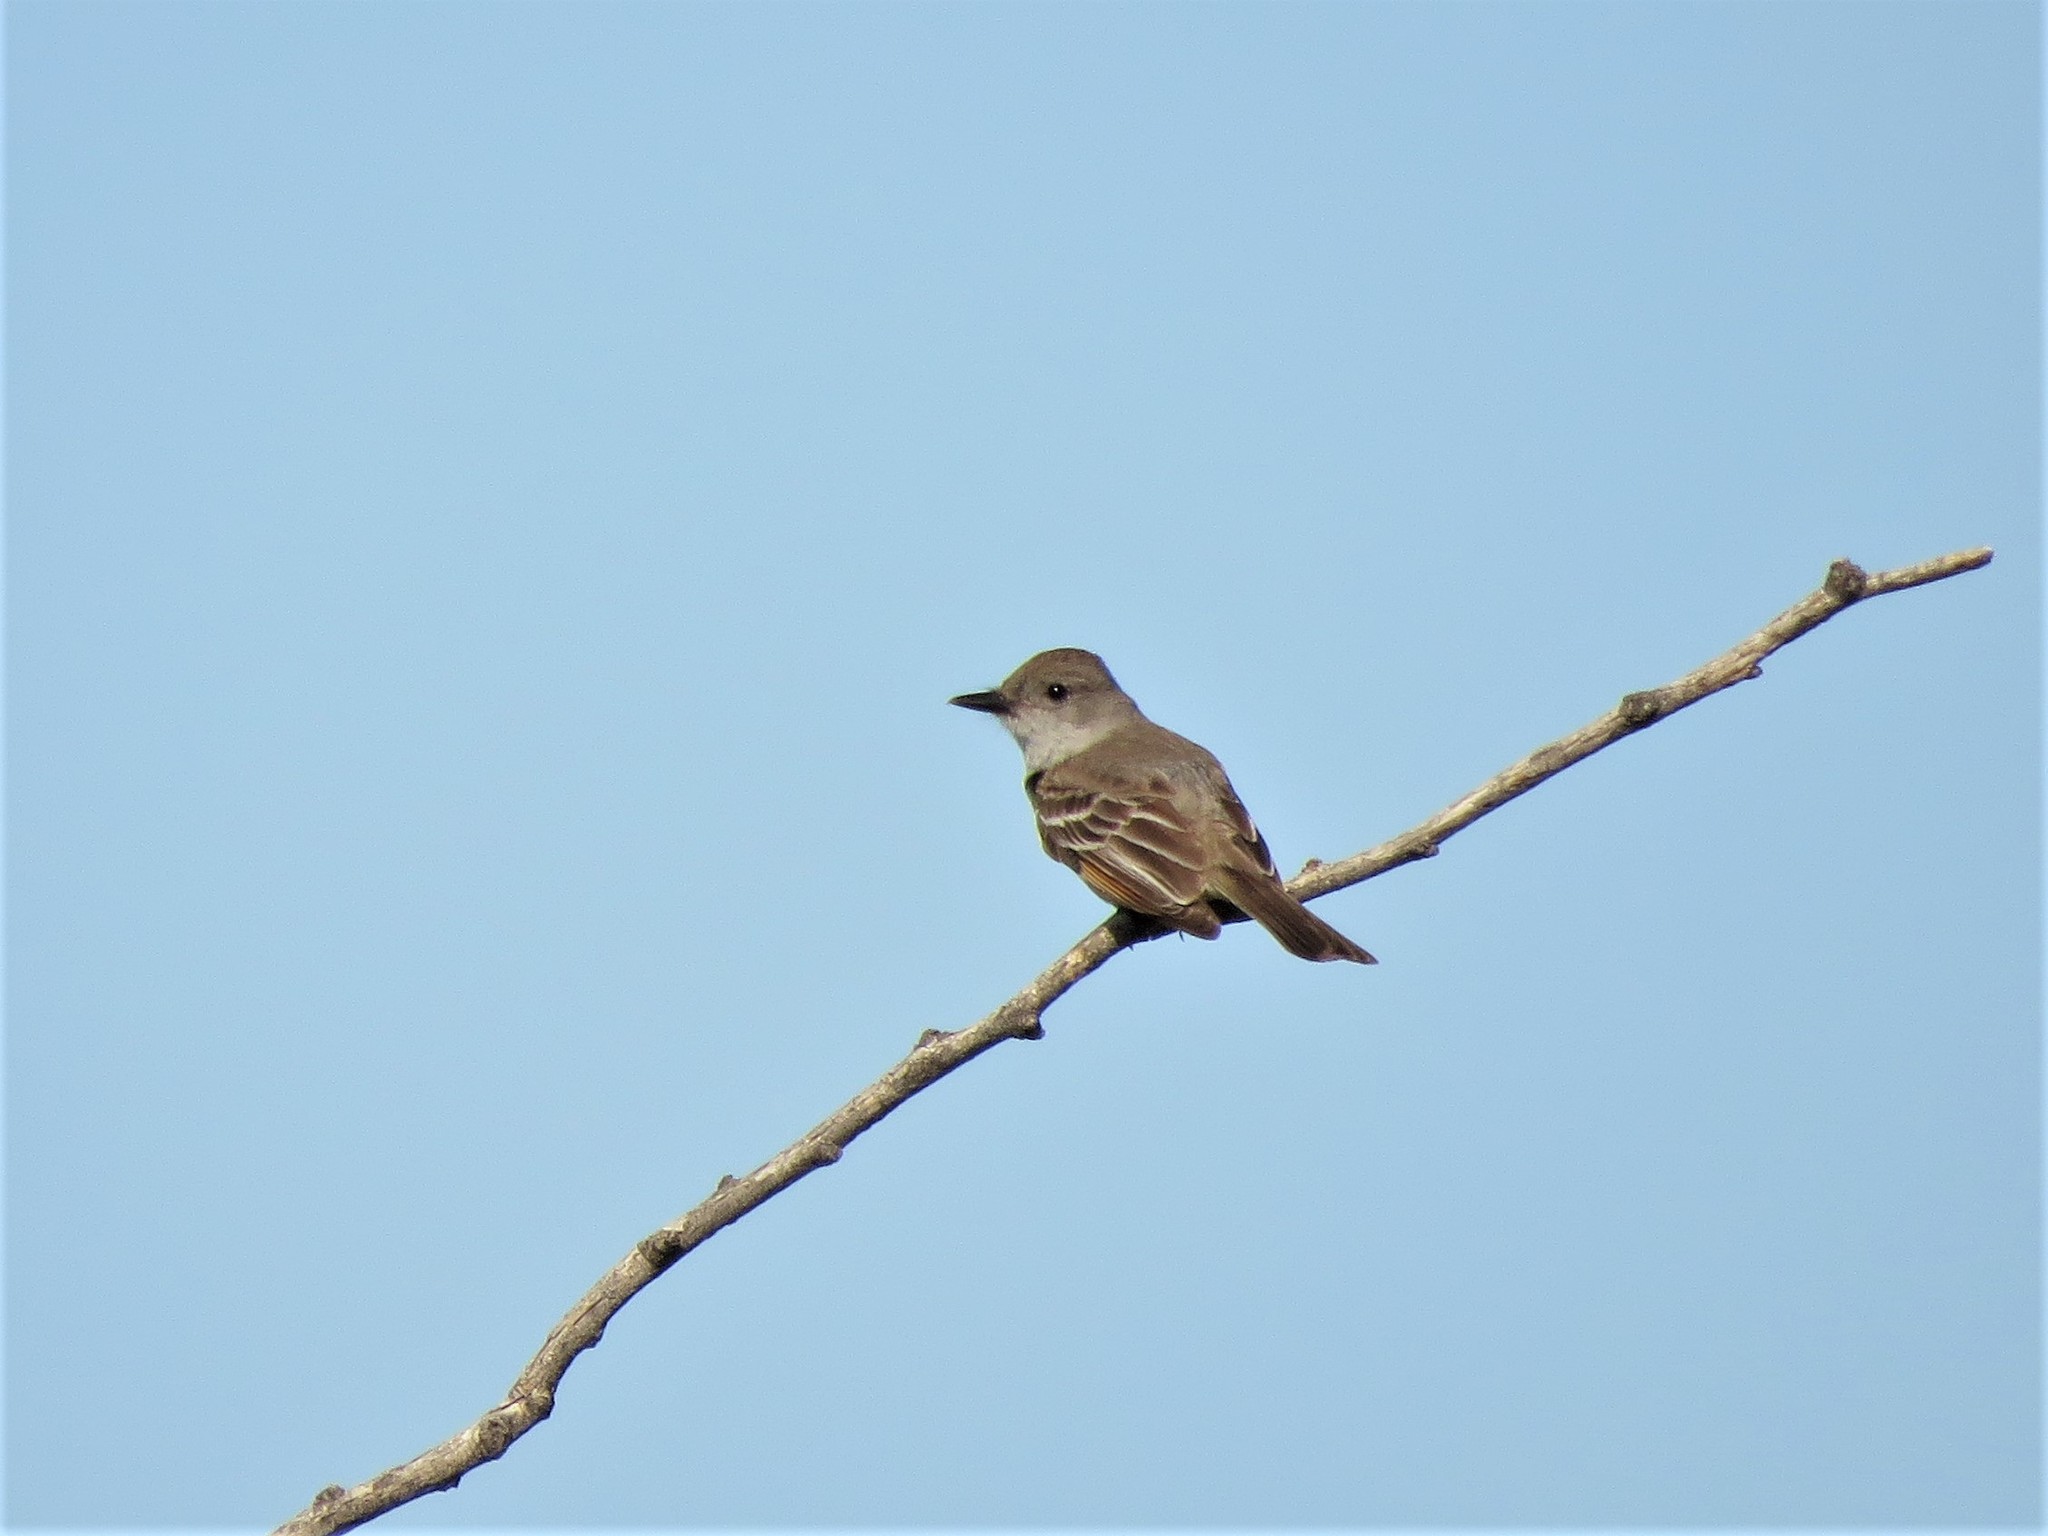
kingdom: Animalia
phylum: Chordata
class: Aves
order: Passeriformes
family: Tyrannidae
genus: Myiarchus
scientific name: Myiarchus cinerascens
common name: Ash-throated flycatcher
